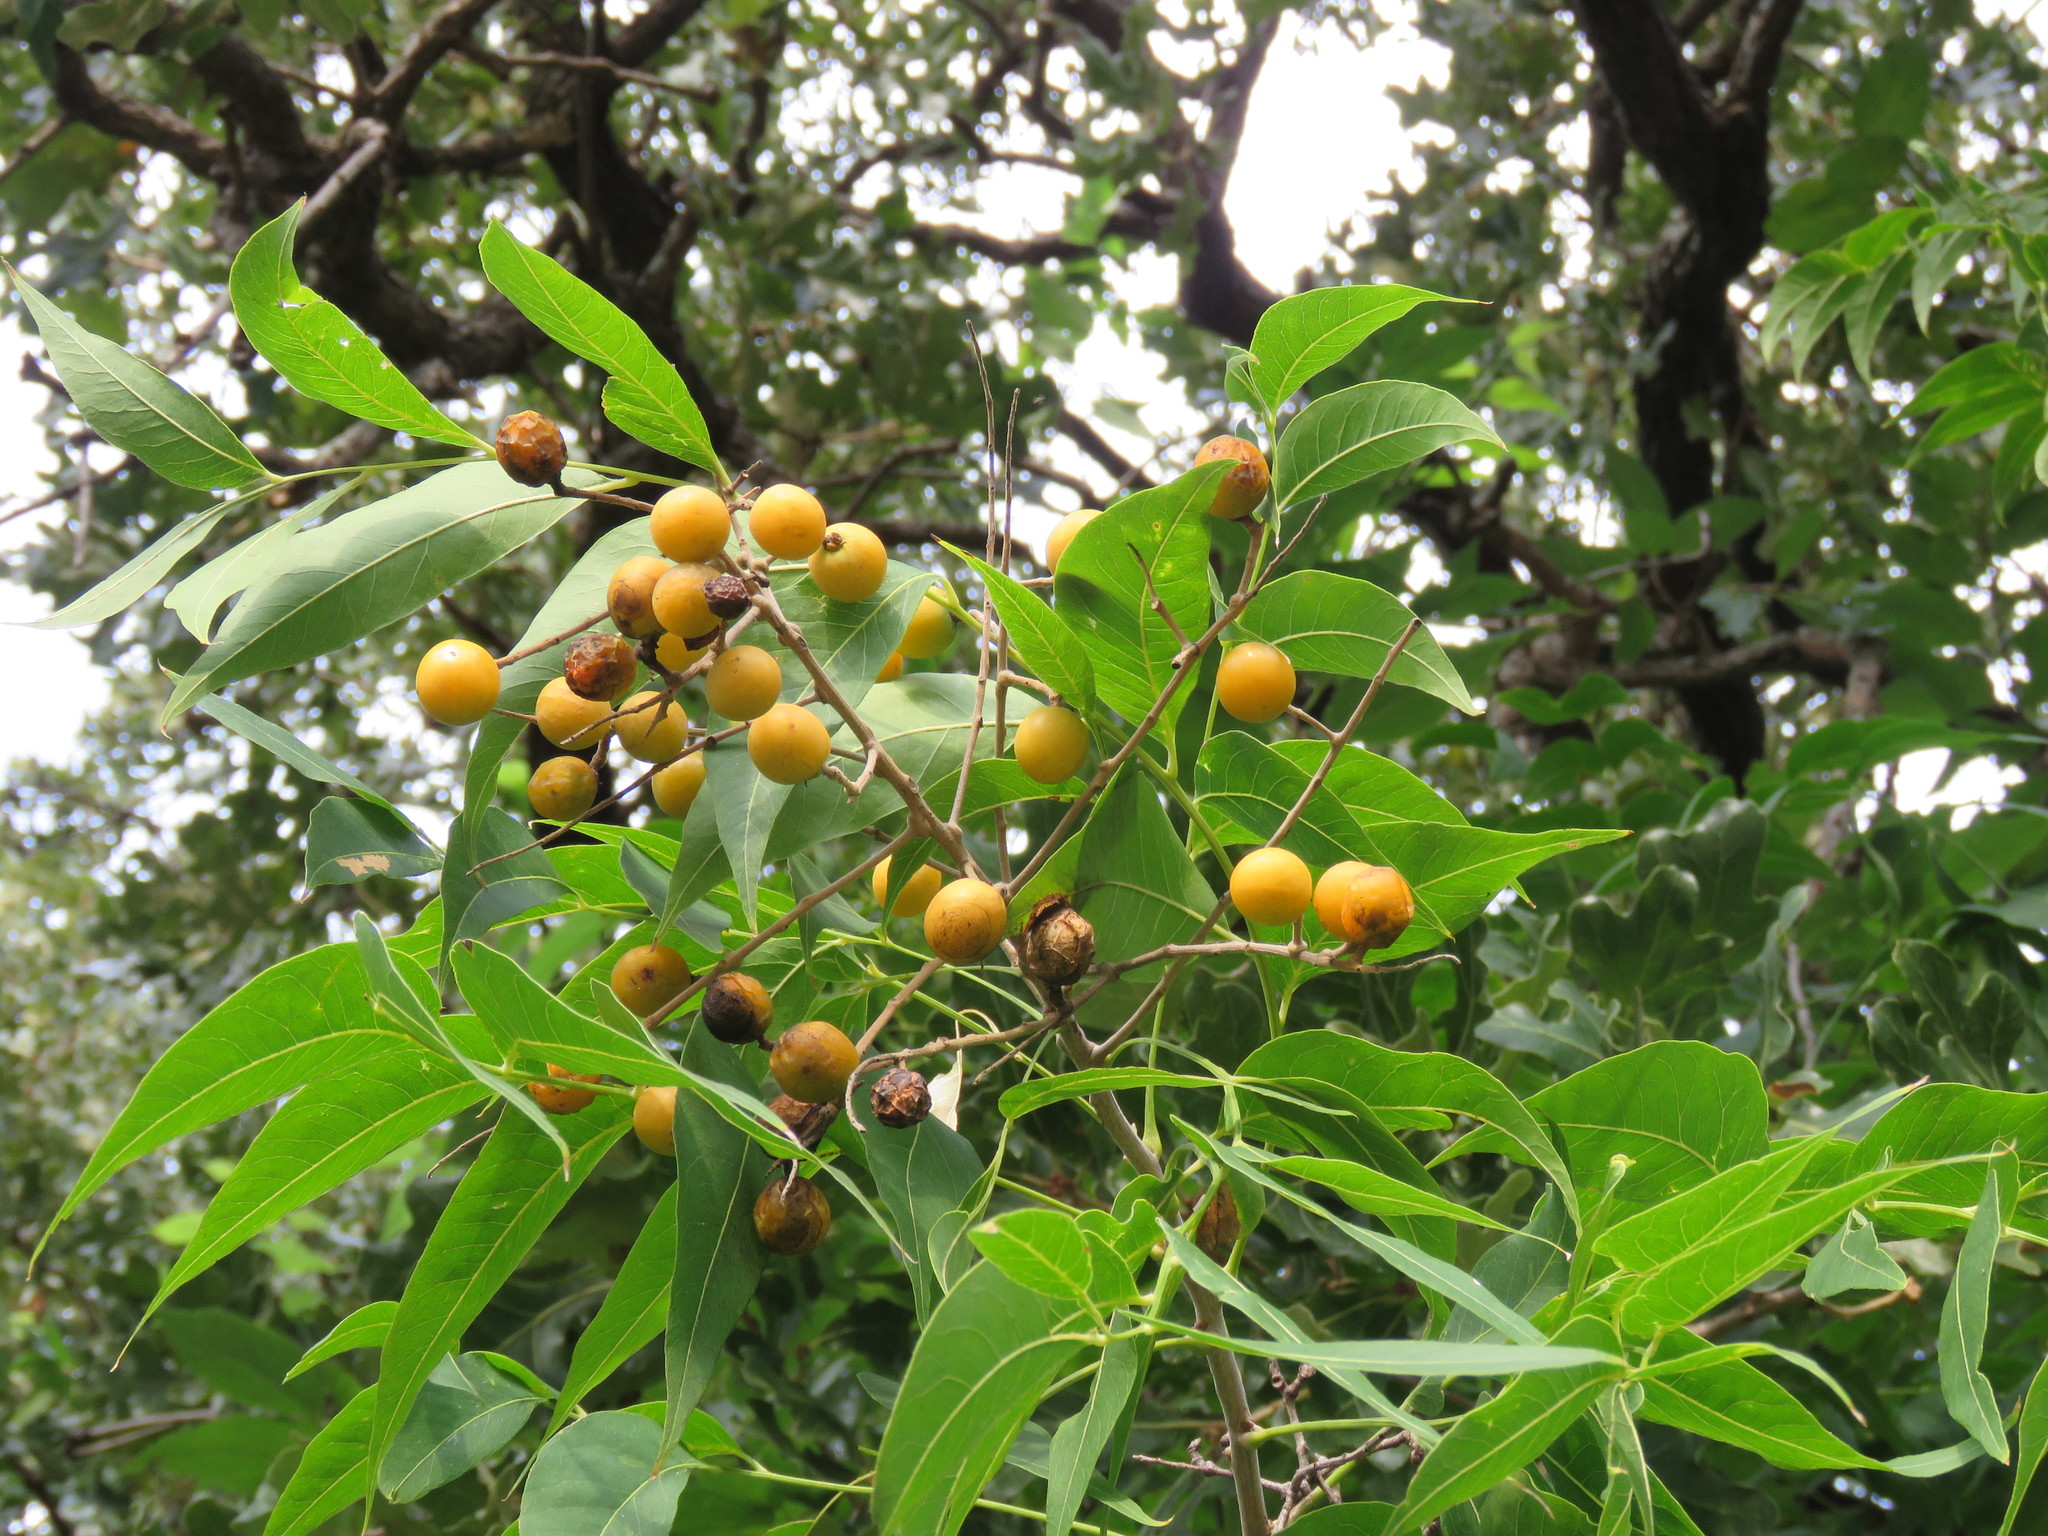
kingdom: Plantae
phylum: Tracheophyta
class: Magnoliopsida
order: Sapindales
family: Sapindaceae
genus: Sapindus
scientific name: Sapindus drummondii
